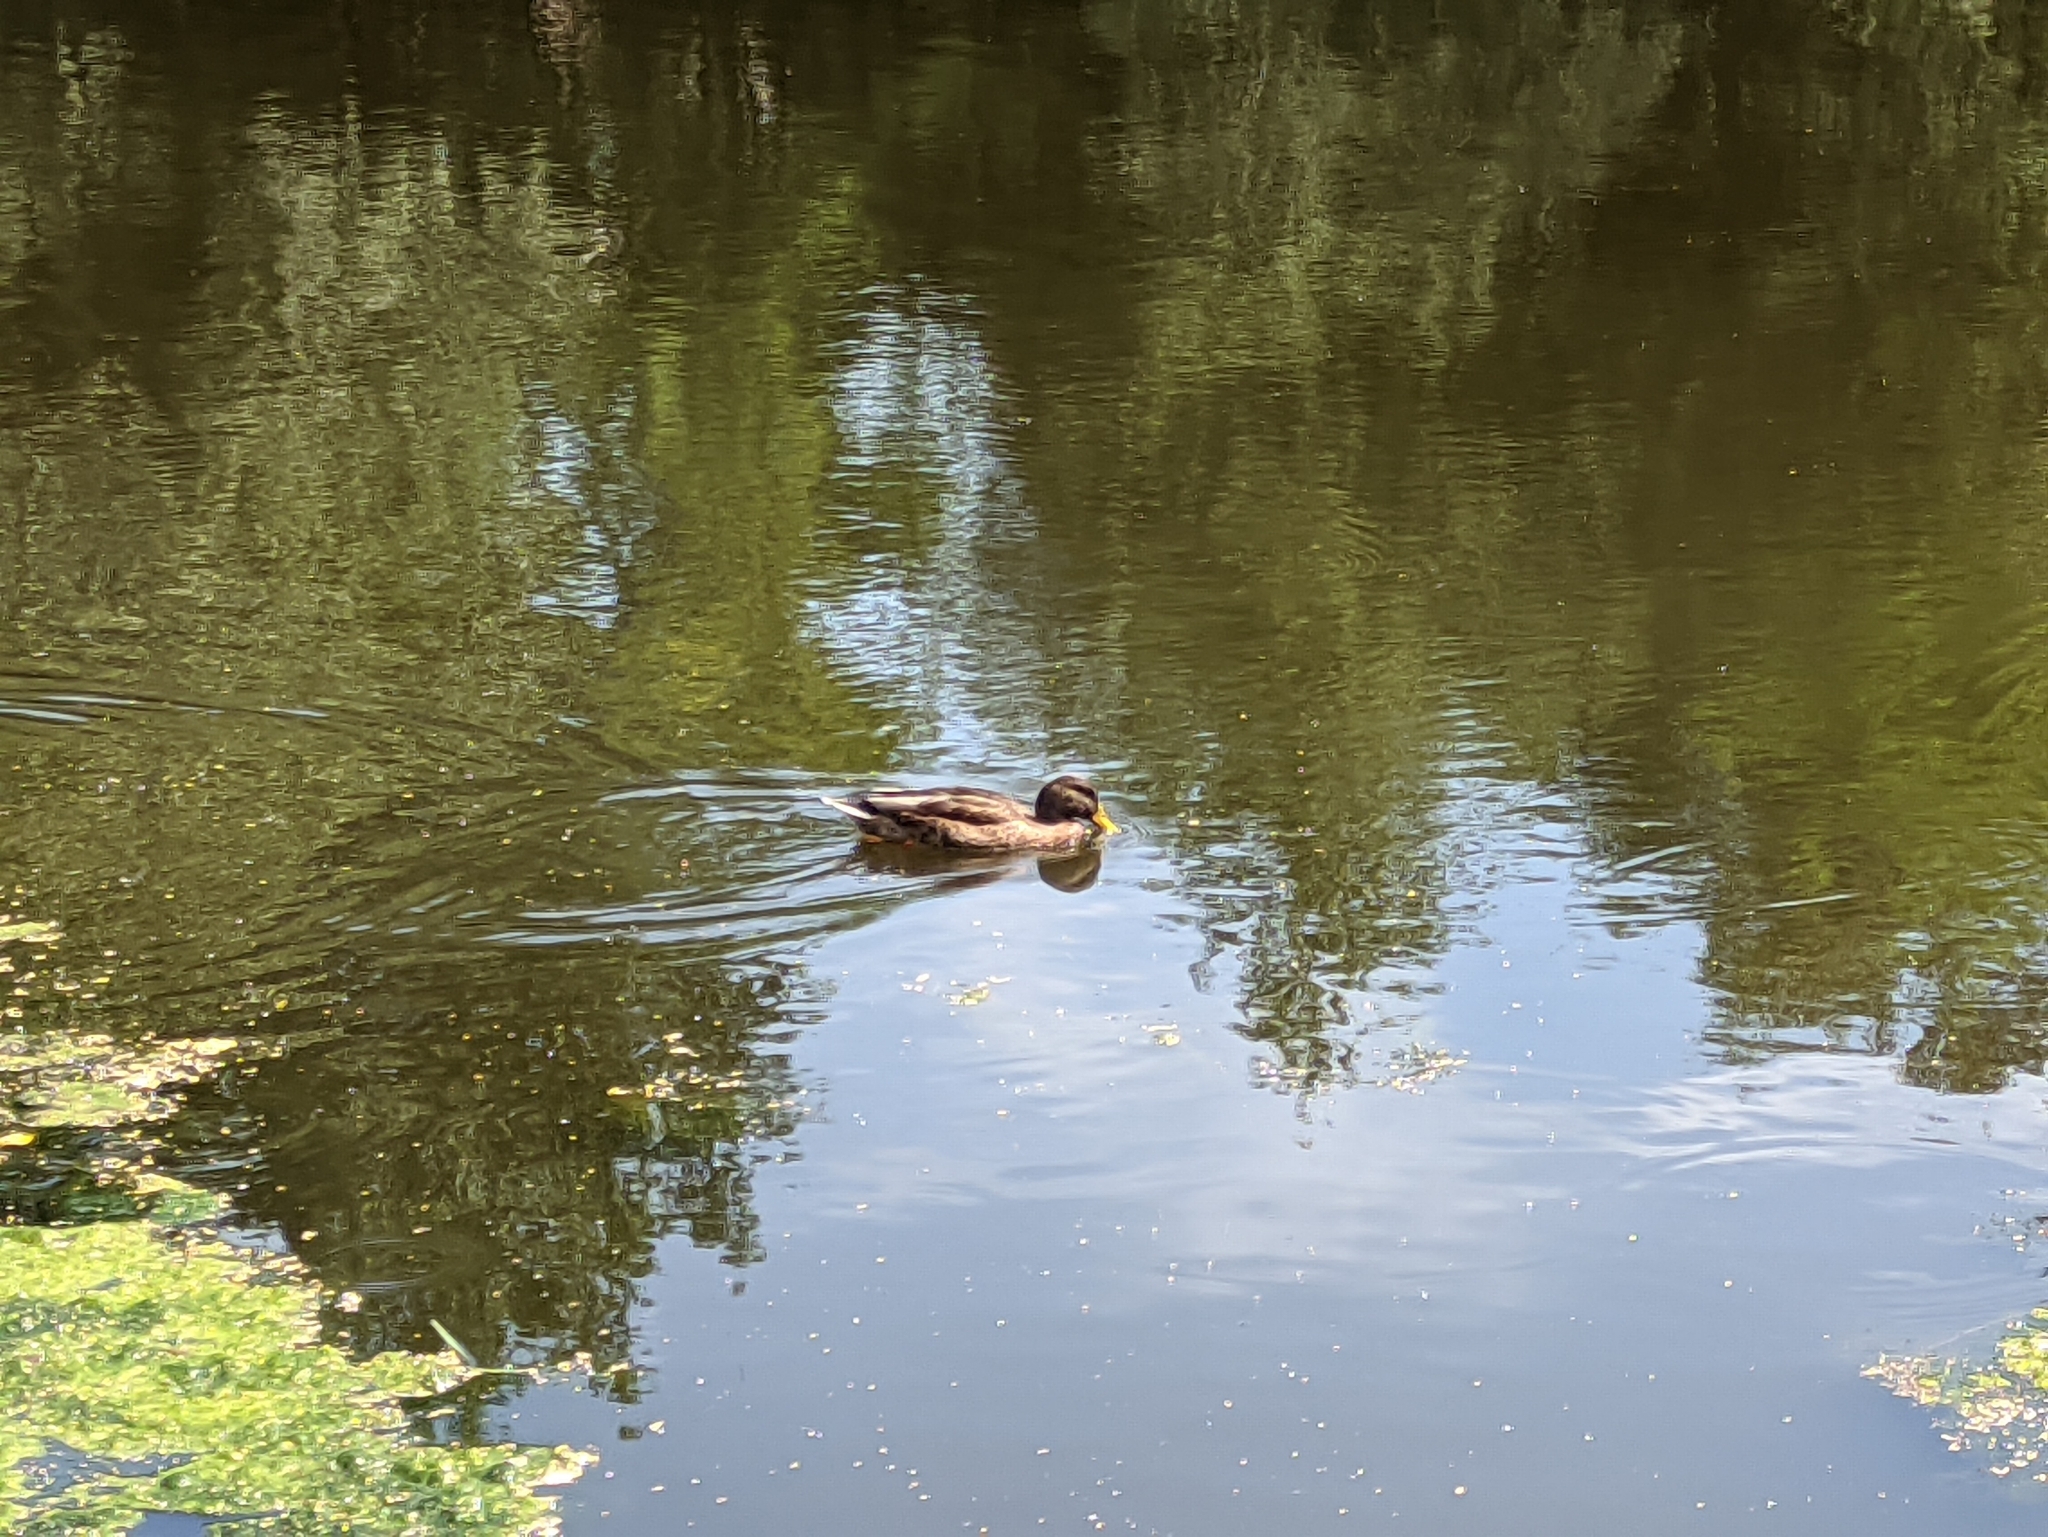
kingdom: Animalia
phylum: Chordata
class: Aves
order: Anseriformes
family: Anatidae
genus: Anas
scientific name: Anas platyrhynchos
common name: Mallard
